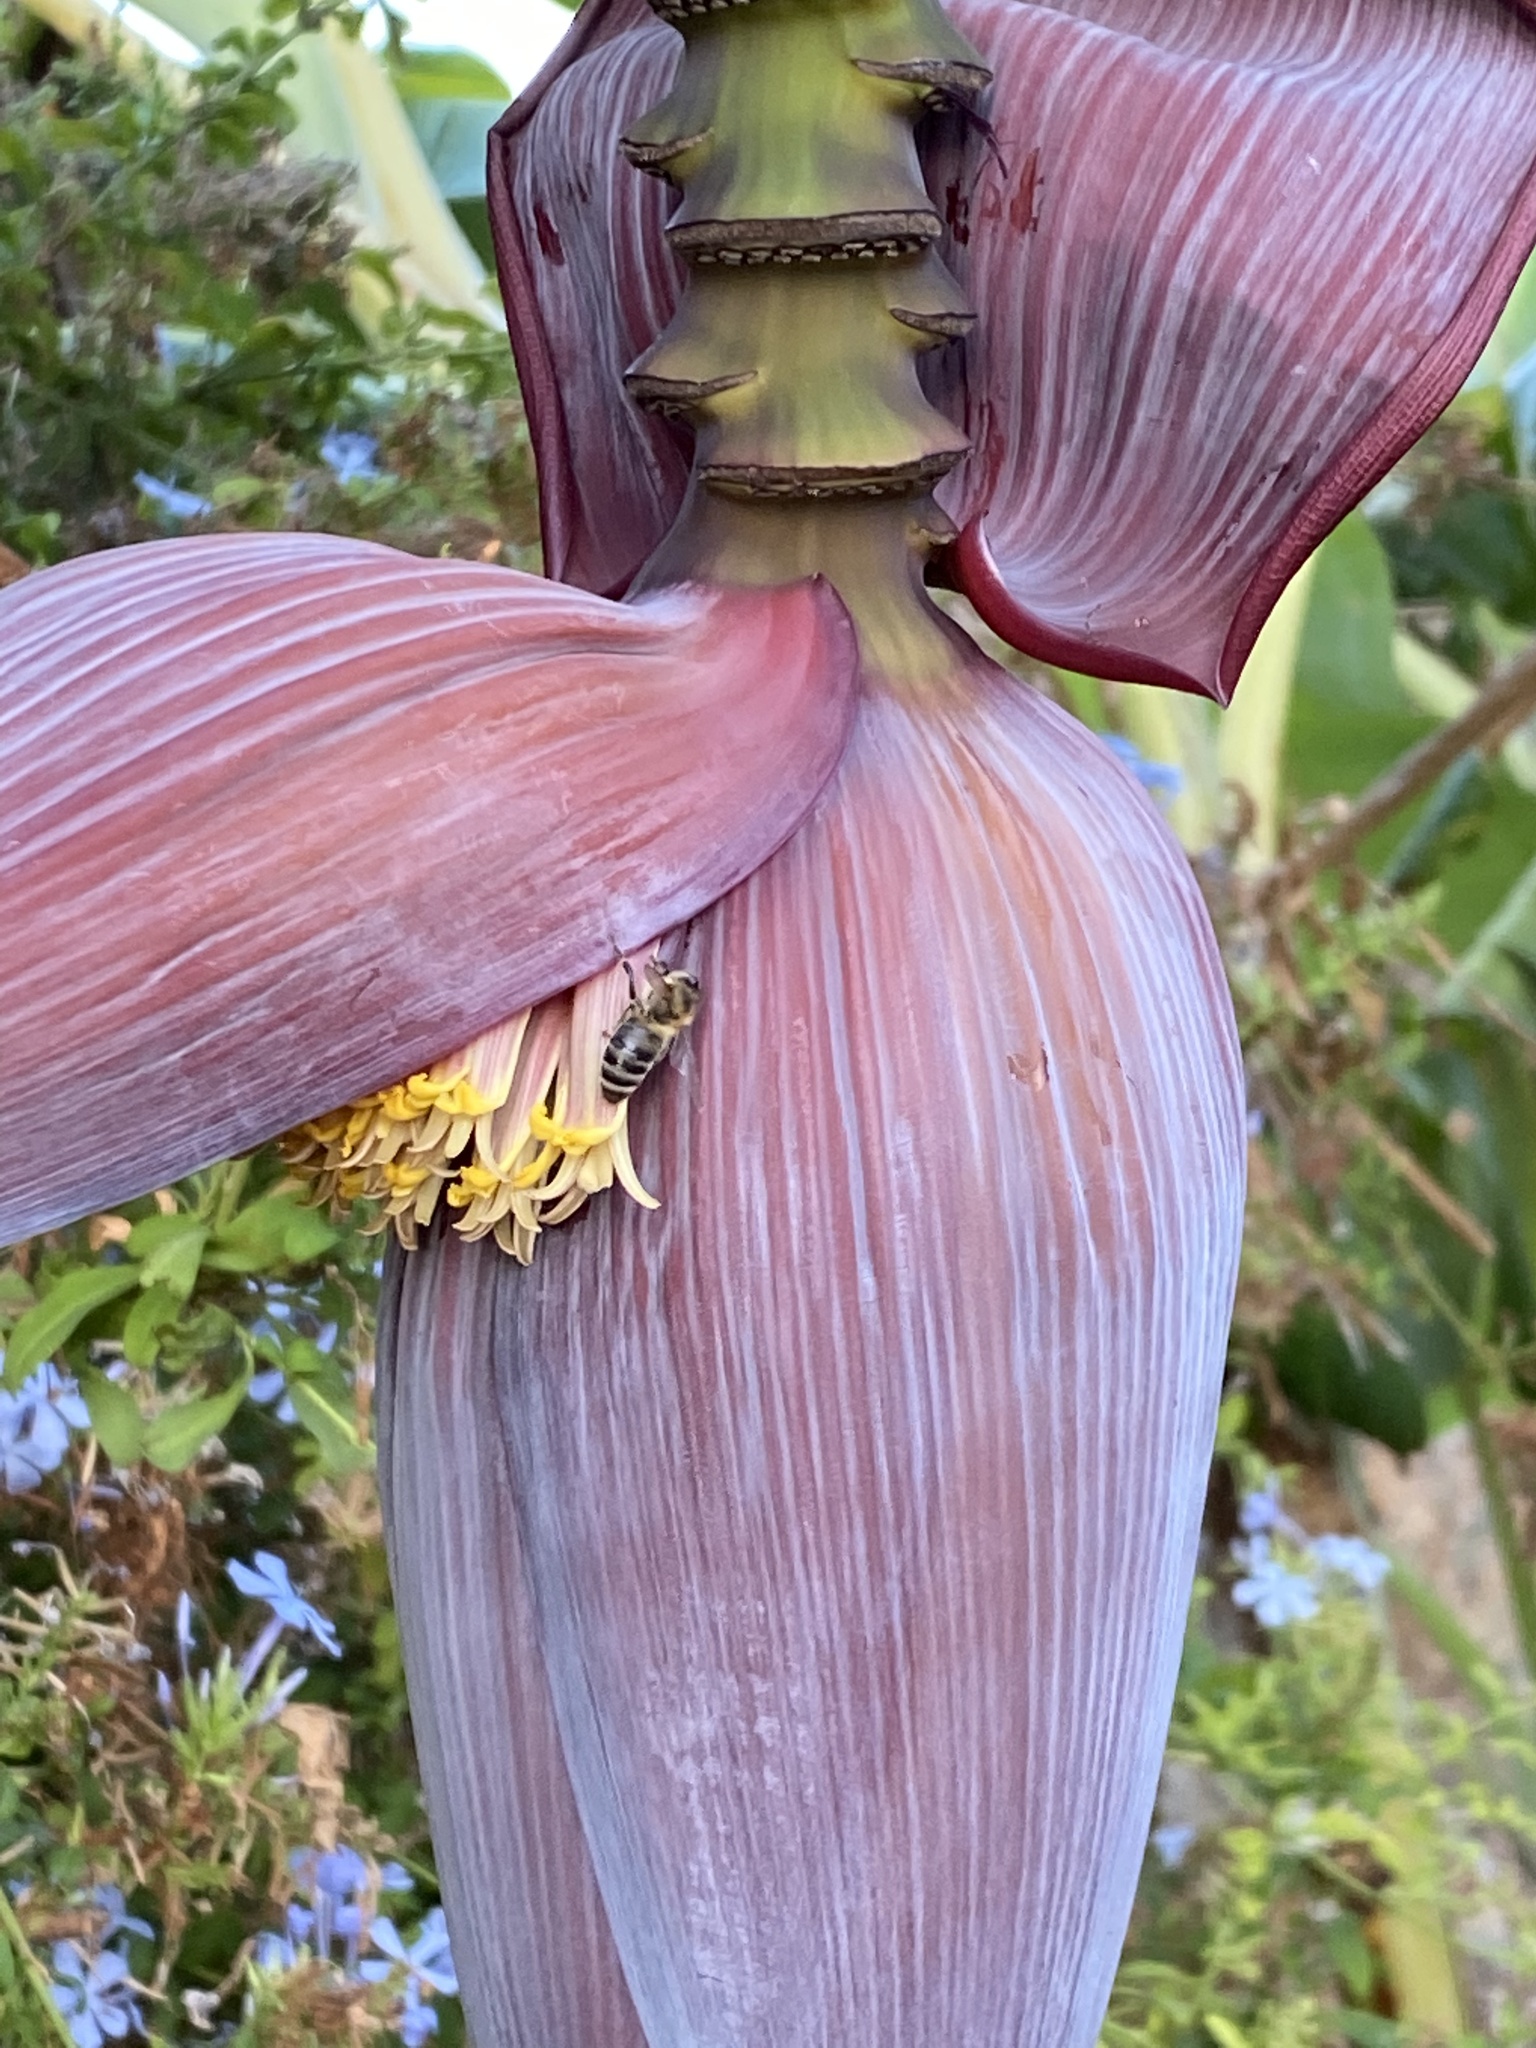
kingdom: Animalia
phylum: Arthropoda
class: Insecta
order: Hymenoptera
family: Apidae
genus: Apis
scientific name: Apis mellifera
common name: Honey bee
